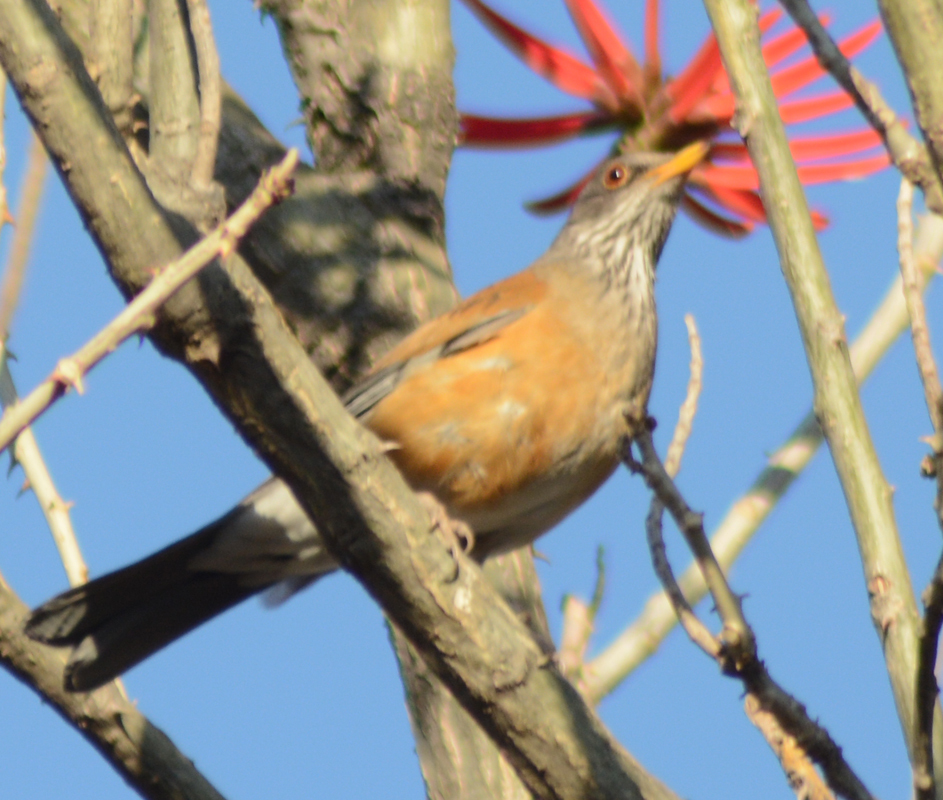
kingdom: Animalia
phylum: Chordata
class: Aves
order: Passeriformes
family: Turdidae
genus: Turdus
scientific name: Turdus rufopalliatus
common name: Rufous-backed robin
